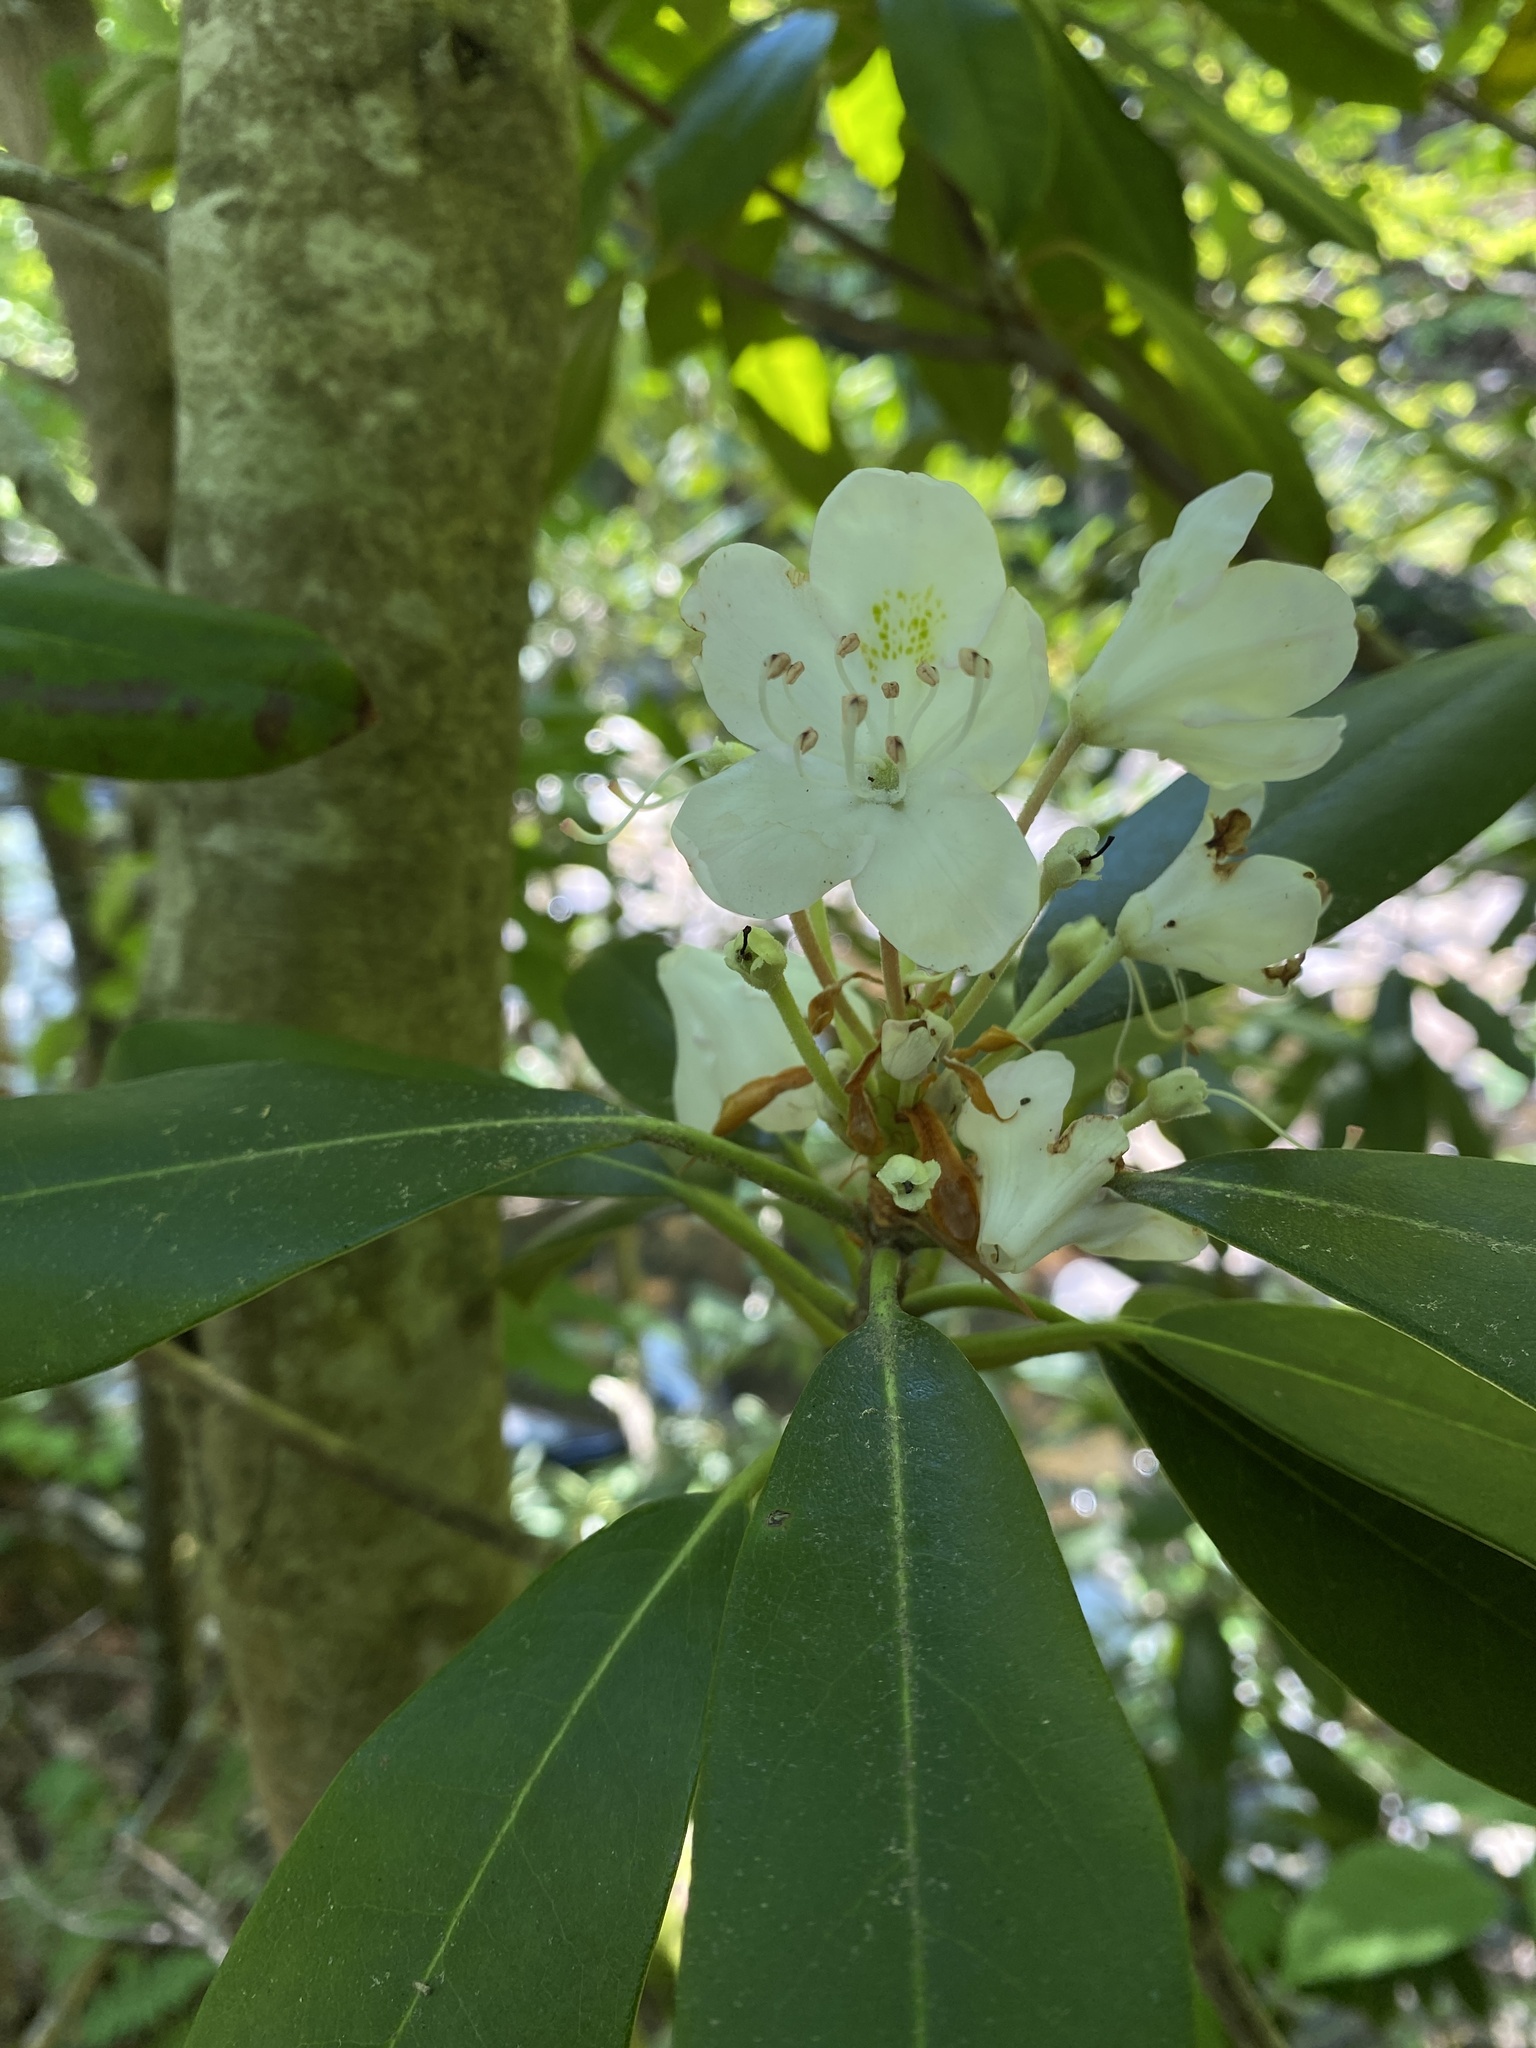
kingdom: Plantae
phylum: Tracheophyta
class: Magnoliopsida
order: Ericales
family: Ericaceae
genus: Rhododendron
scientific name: Rhododendron maximum
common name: Great rhododendron
